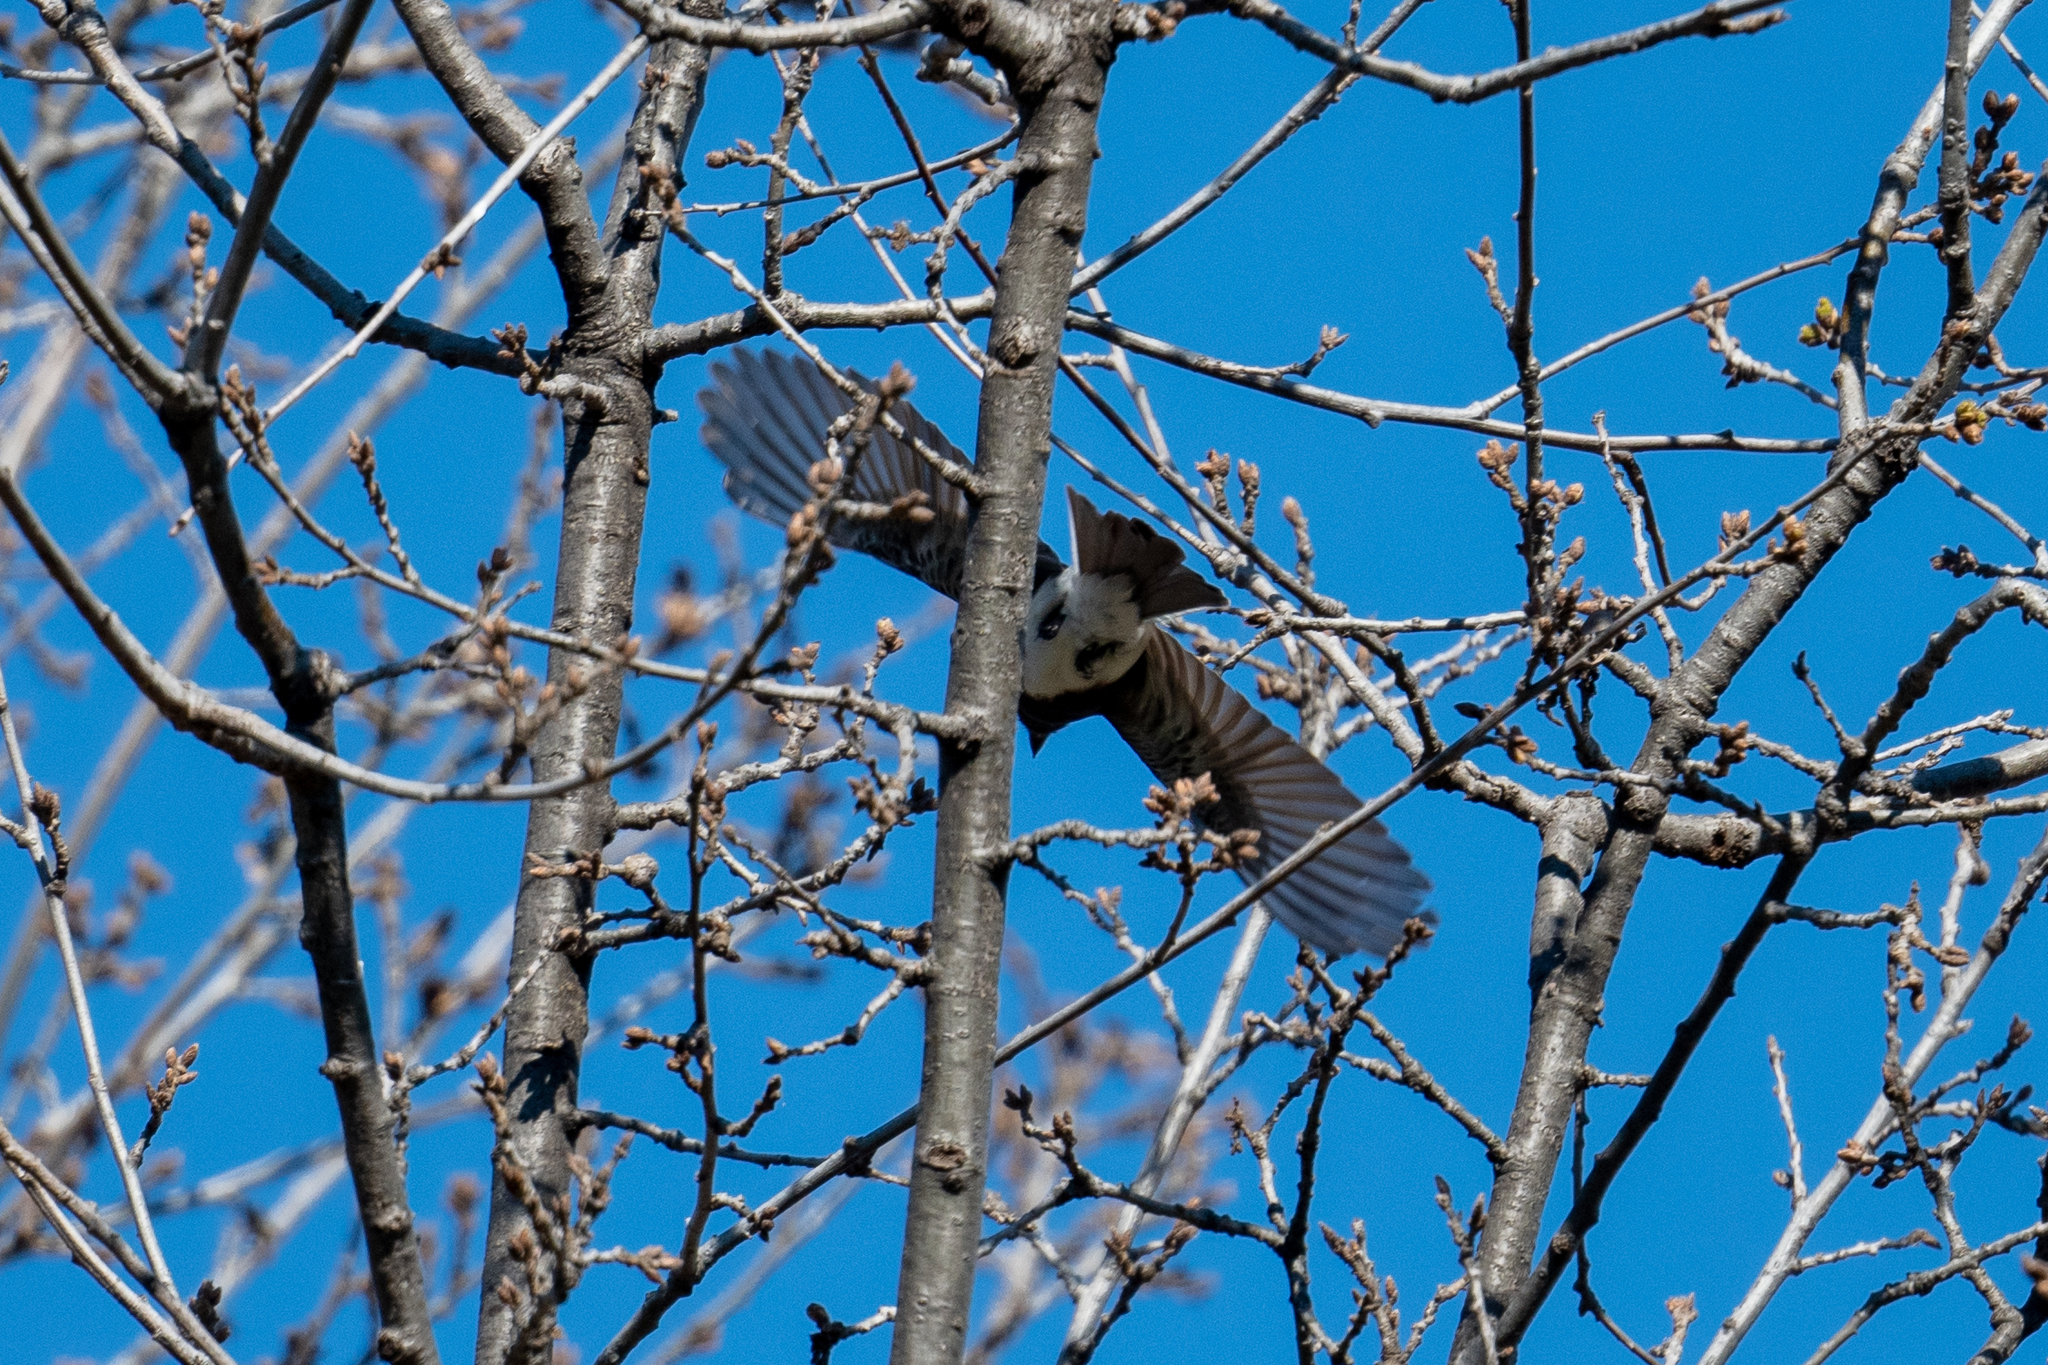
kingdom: Animalia
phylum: Chordata
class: Aves
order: Passeriformes
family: Tyrannidae
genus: Sayornis
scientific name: Sayornis nigricans
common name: Black phoebe
